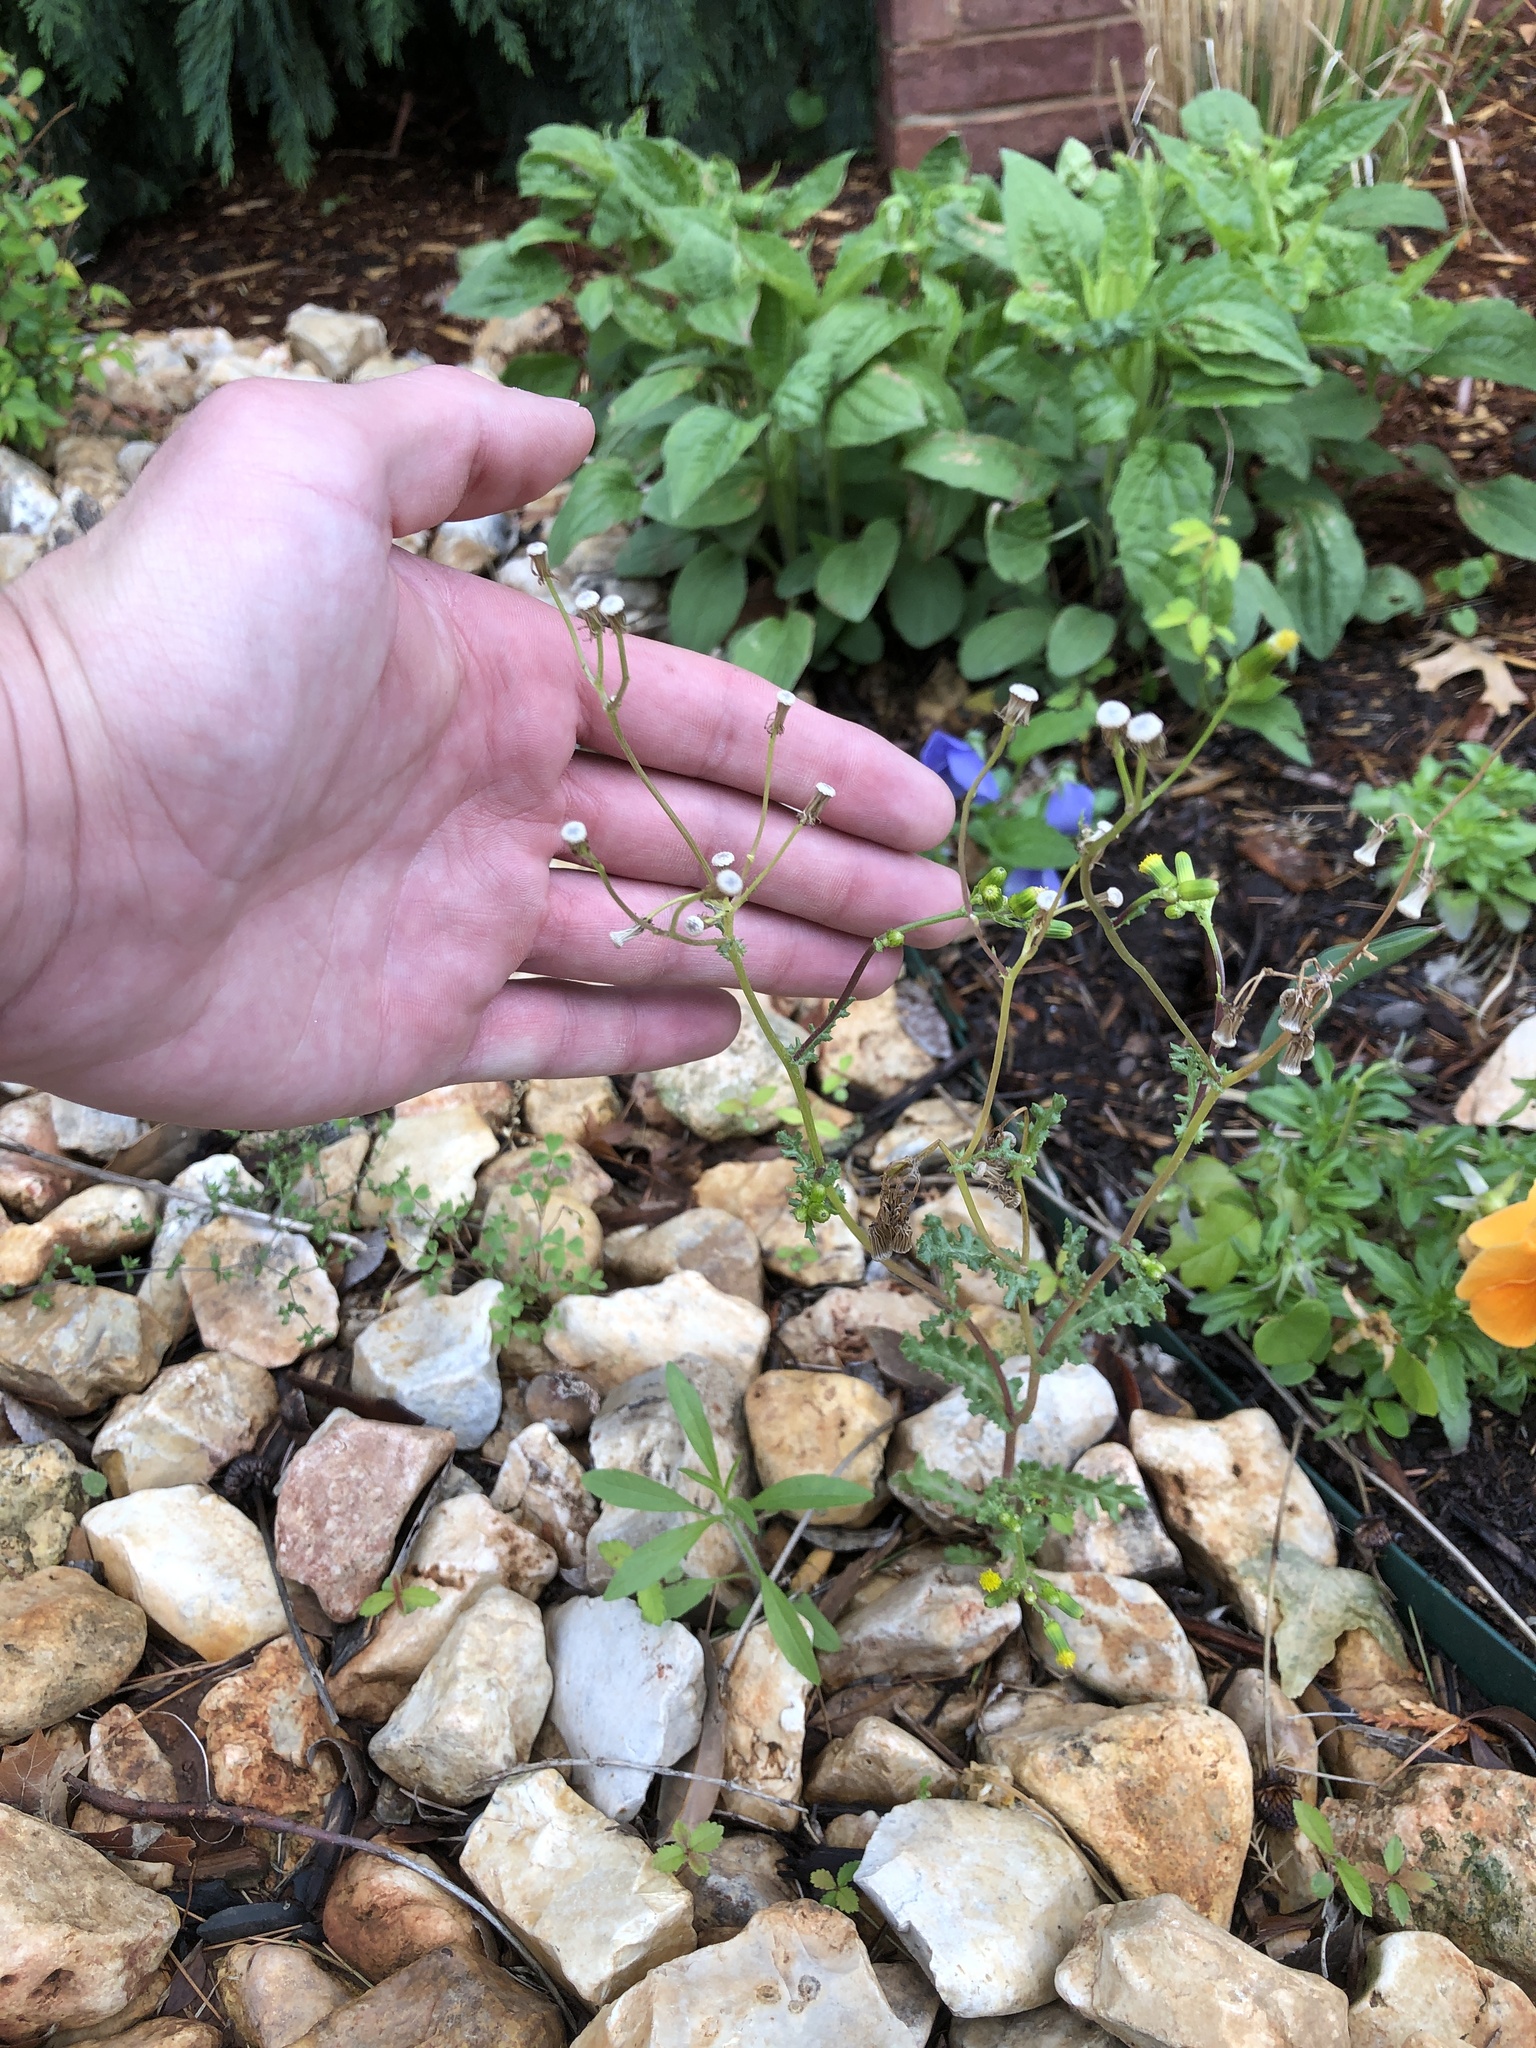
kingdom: Plantae
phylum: Tracheophyta
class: Magnoliopsida
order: Asterales
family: Asteraceae
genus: Senecio
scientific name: Senecio vulgaris
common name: Old-man-in-the-spring
